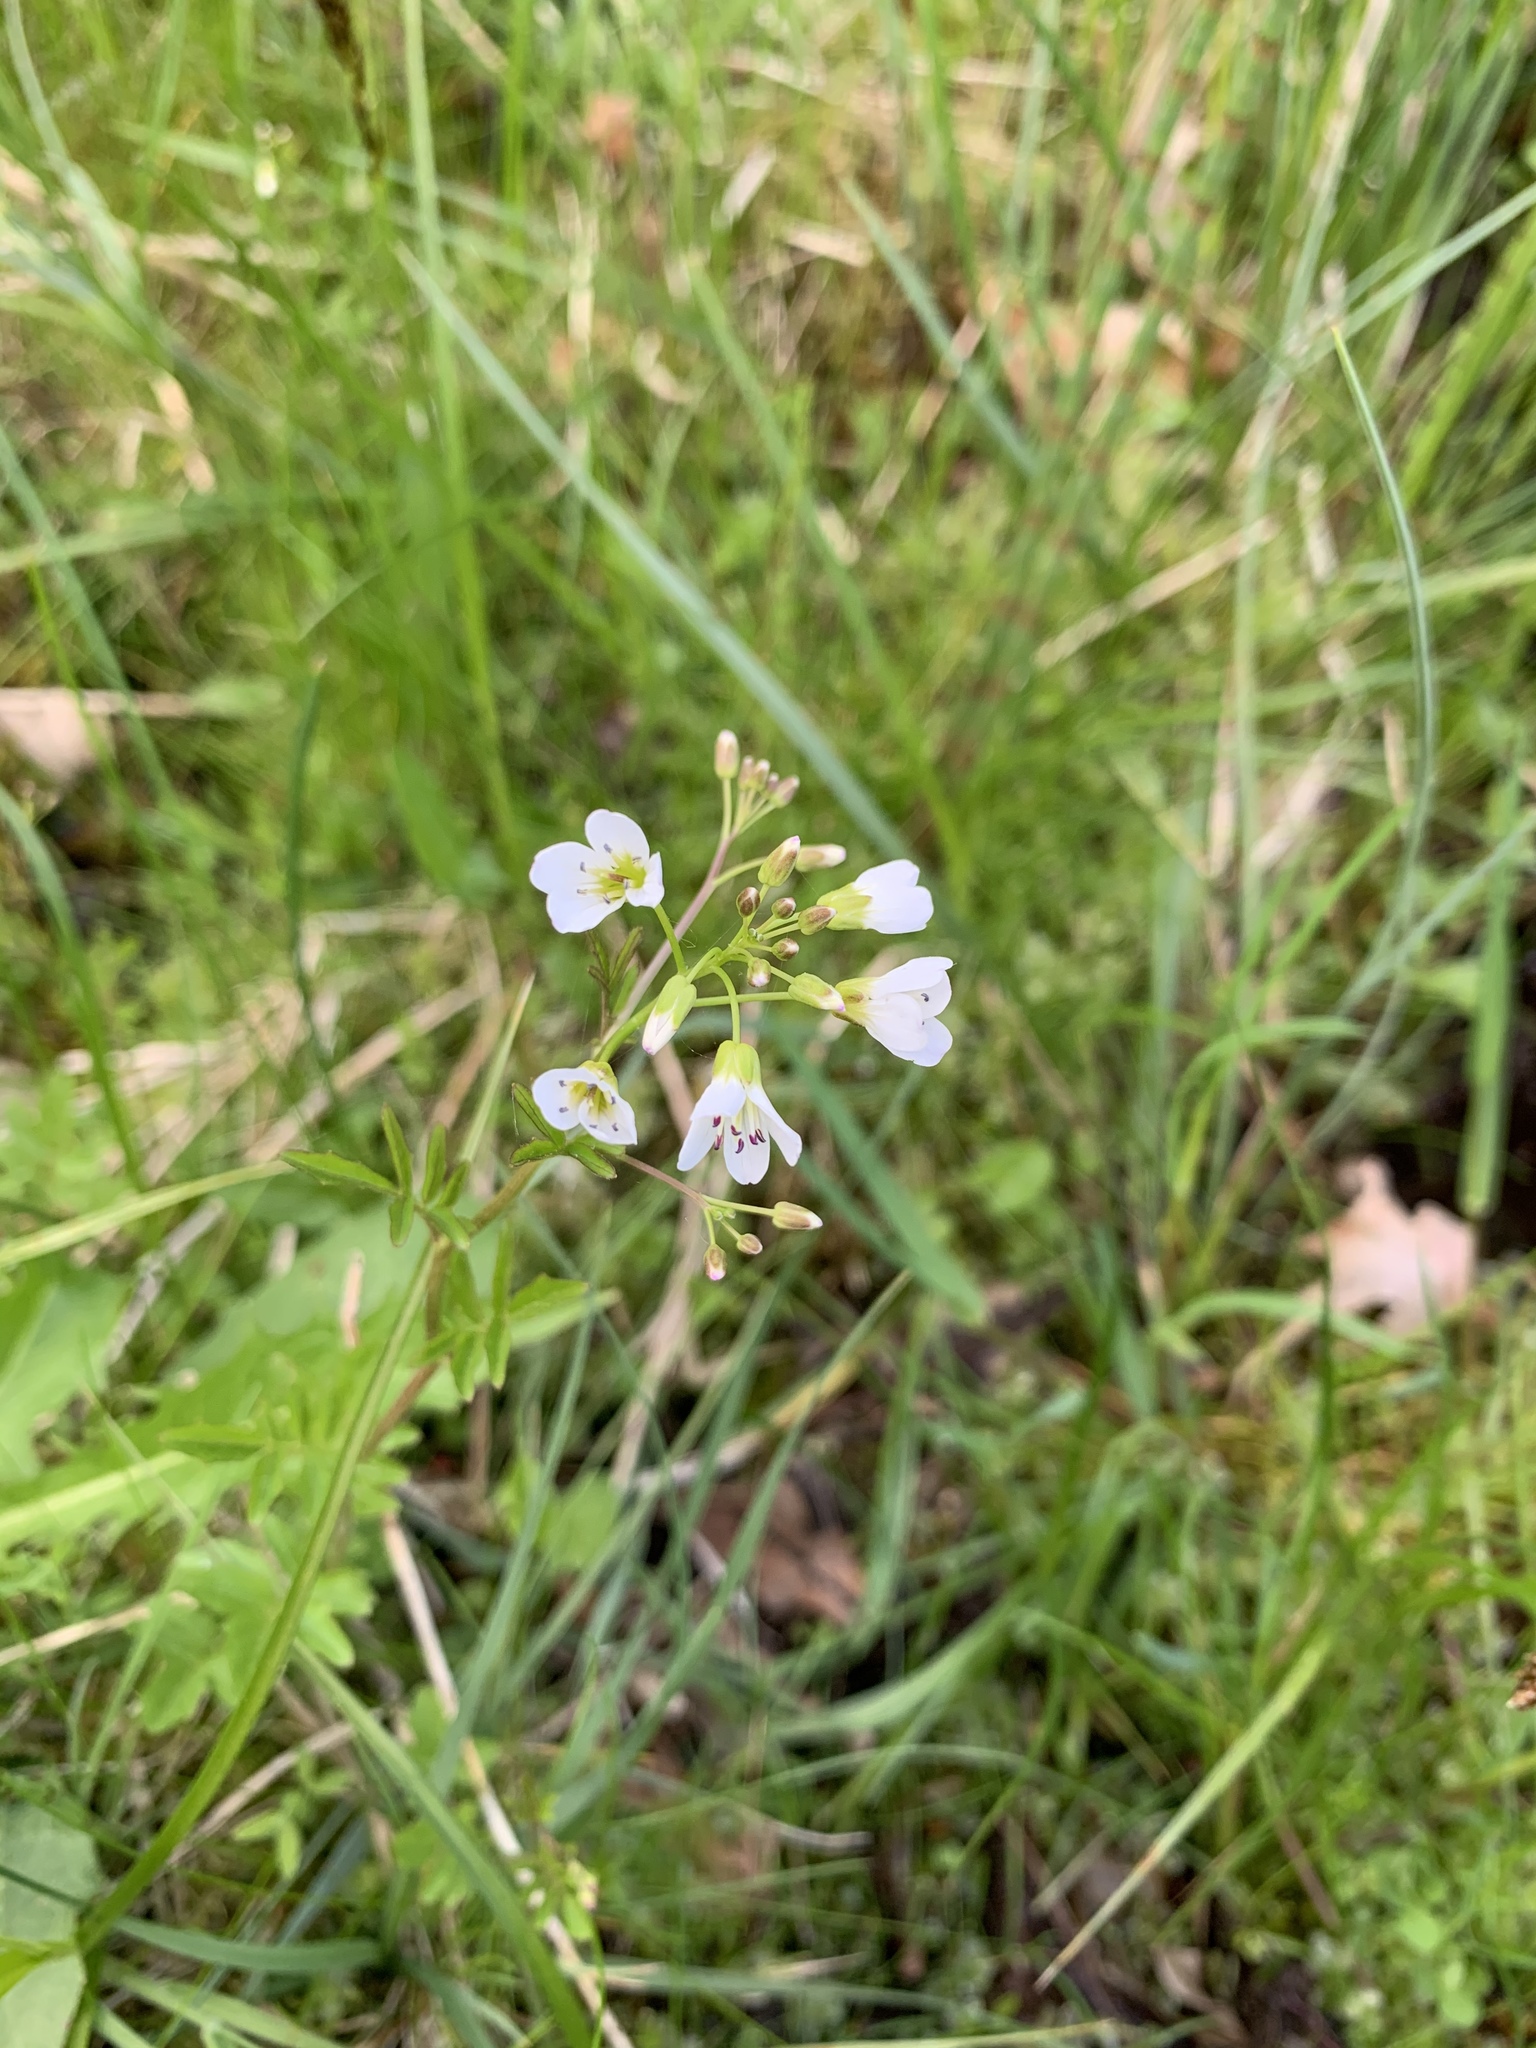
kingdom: Plantae
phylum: Tracheophyta
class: Magnoliopsida
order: Brassicales
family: Brassicaceae
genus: Cardamine
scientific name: Cardamine amara
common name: Large bitter-cress
